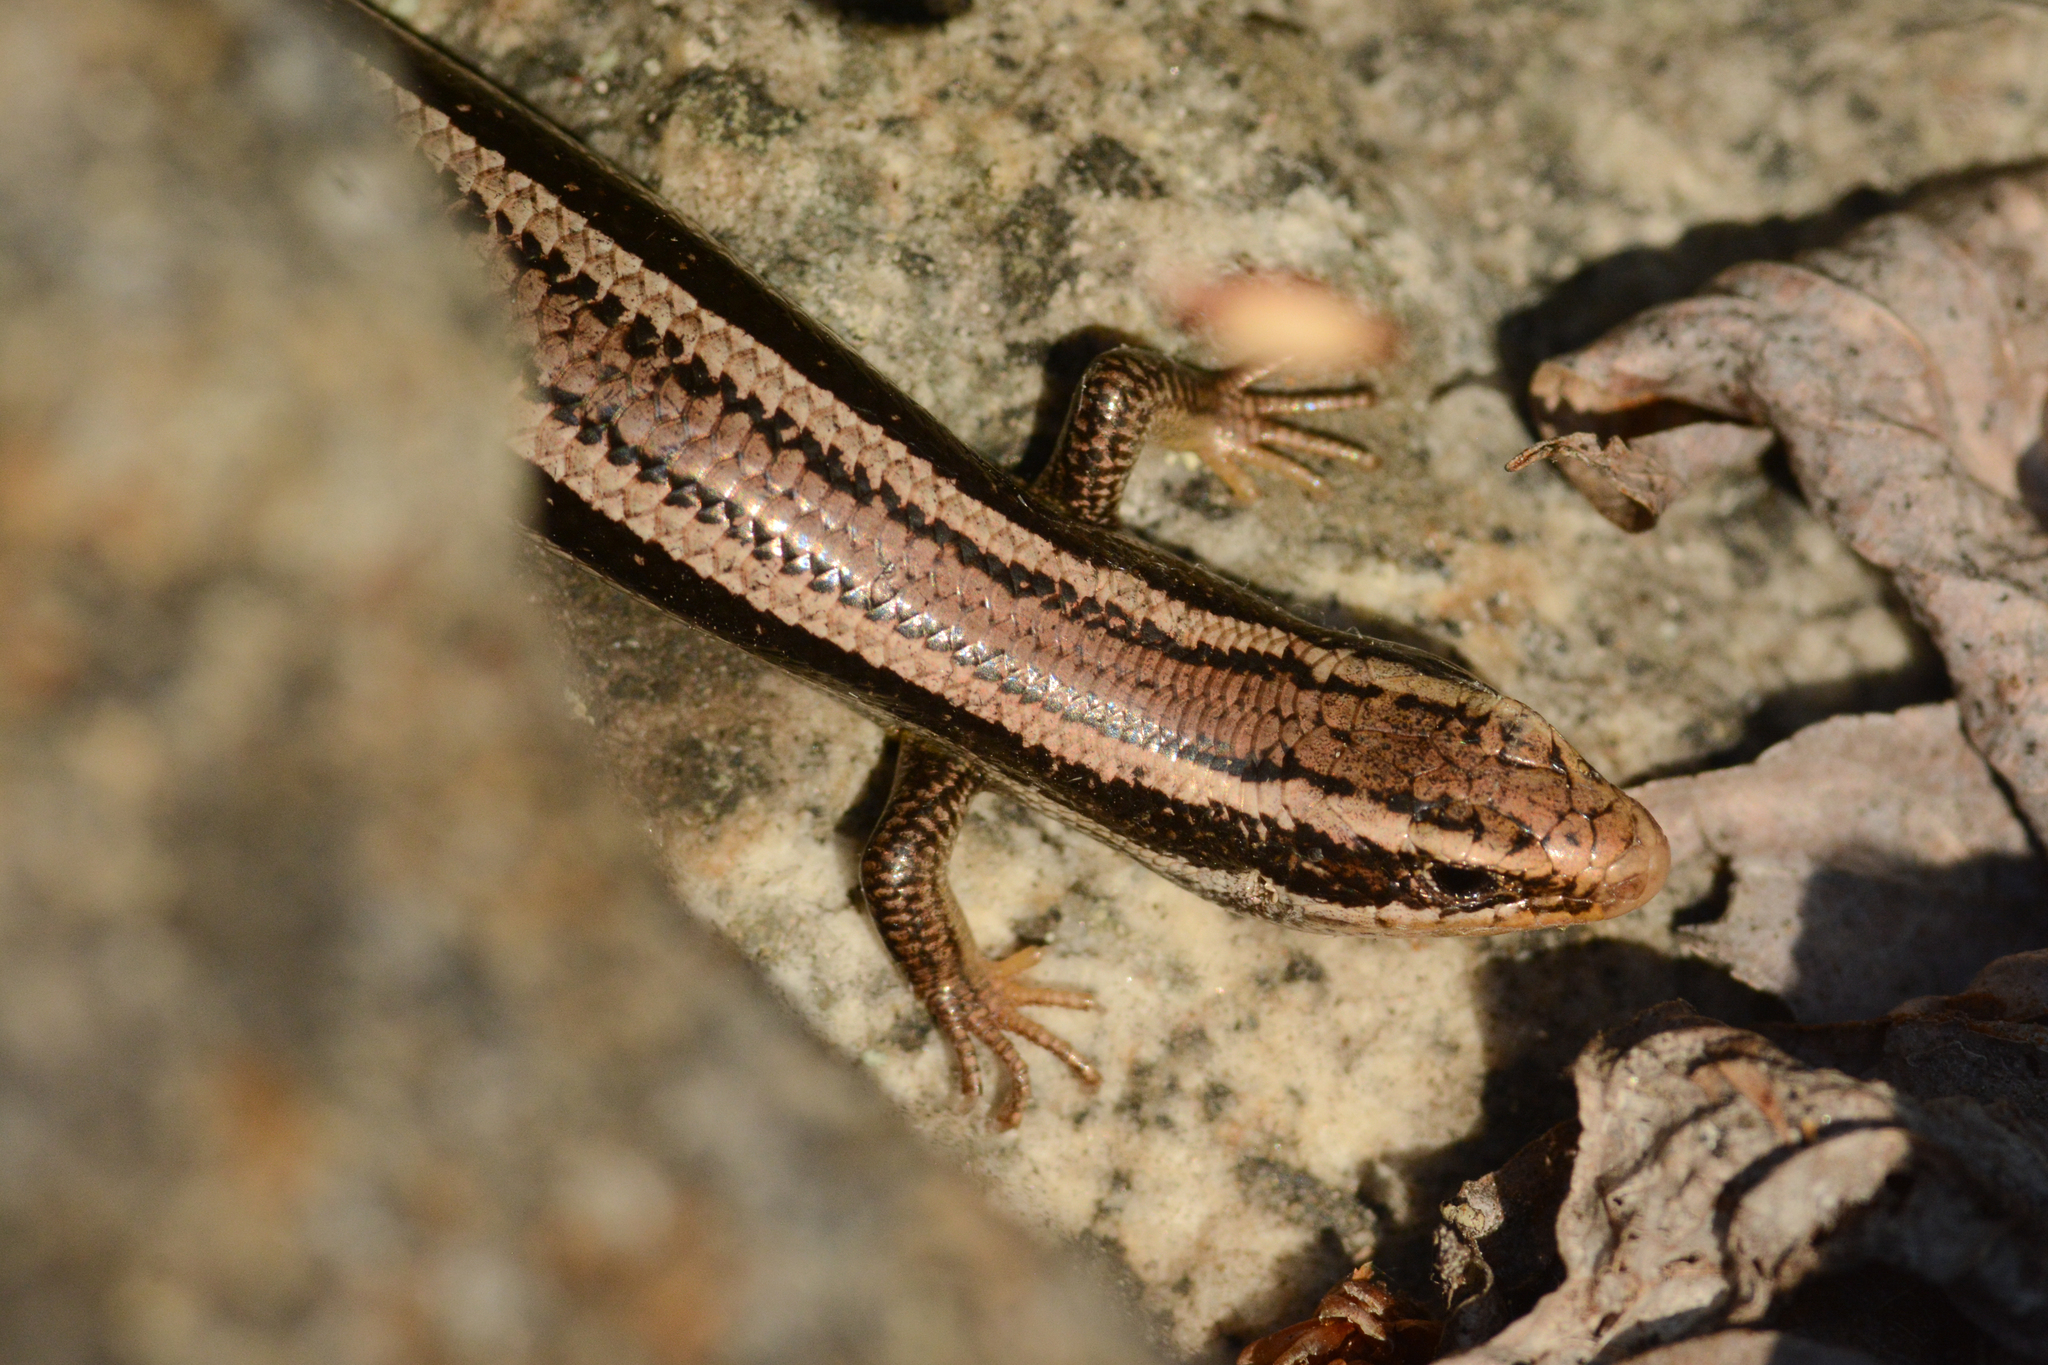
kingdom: Animalia
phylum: Chordata
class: Squamata
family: Scincidae
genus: Plestiodon
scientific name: Plestiodon skiltonianus
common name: Coronado island skink [interparietalis]
